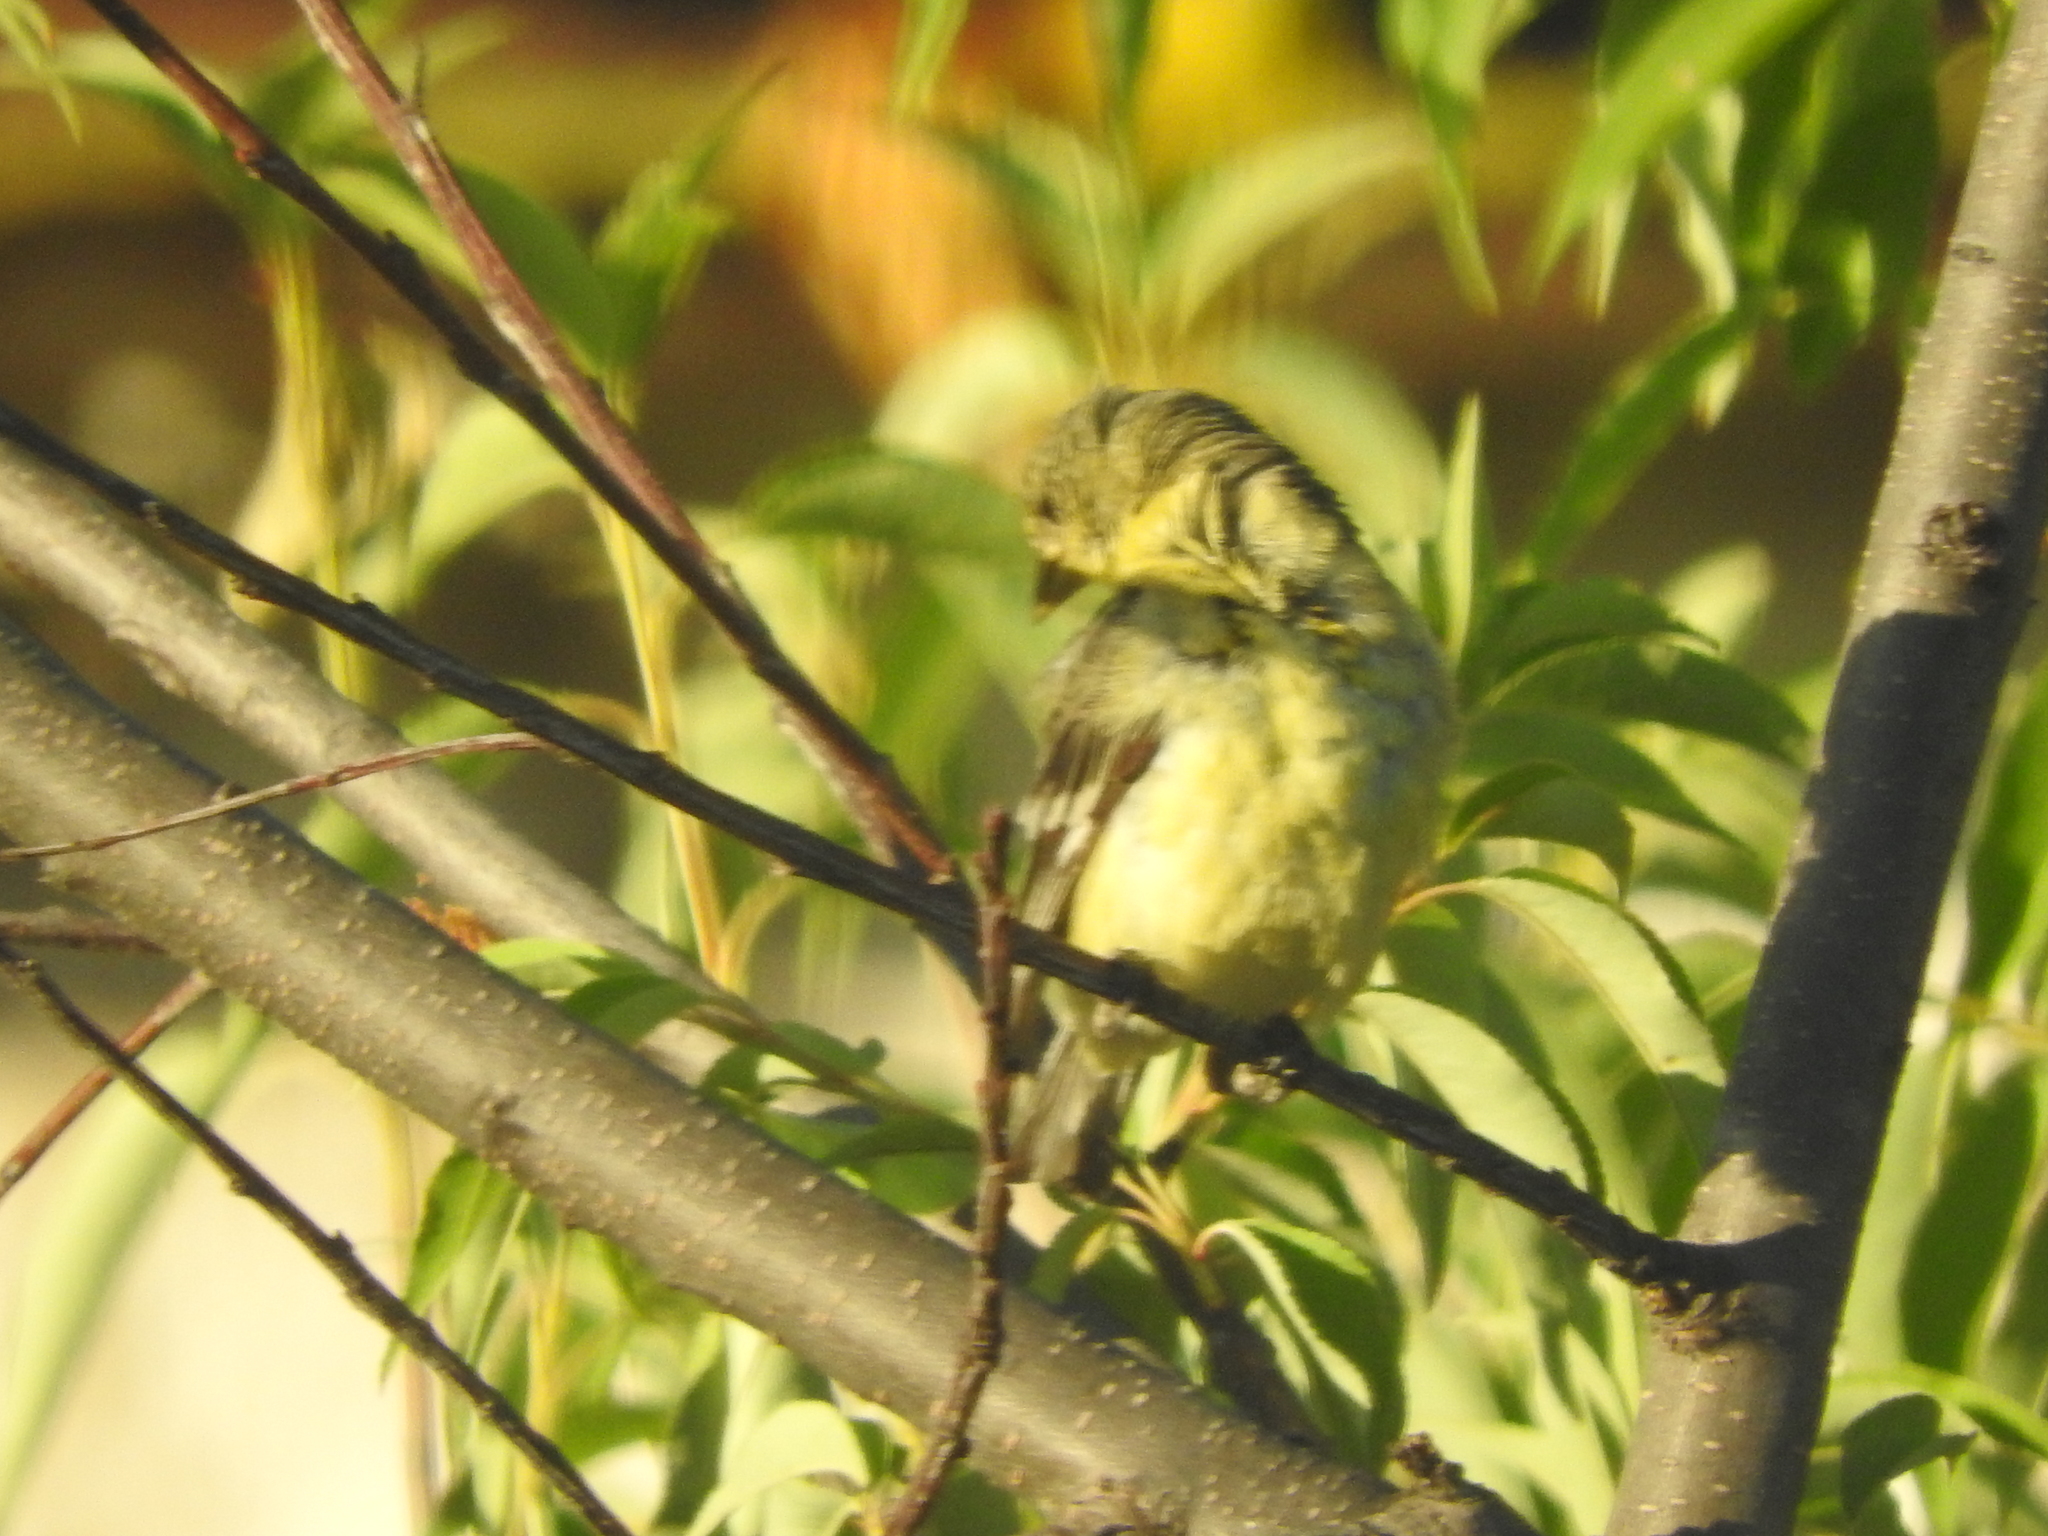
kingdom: Animalia
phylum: Chordata
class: Aves
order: Passeriformes
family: Fringillidae
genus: Spinus
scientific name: Spinus psaltria
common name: Lesser goldfinch
